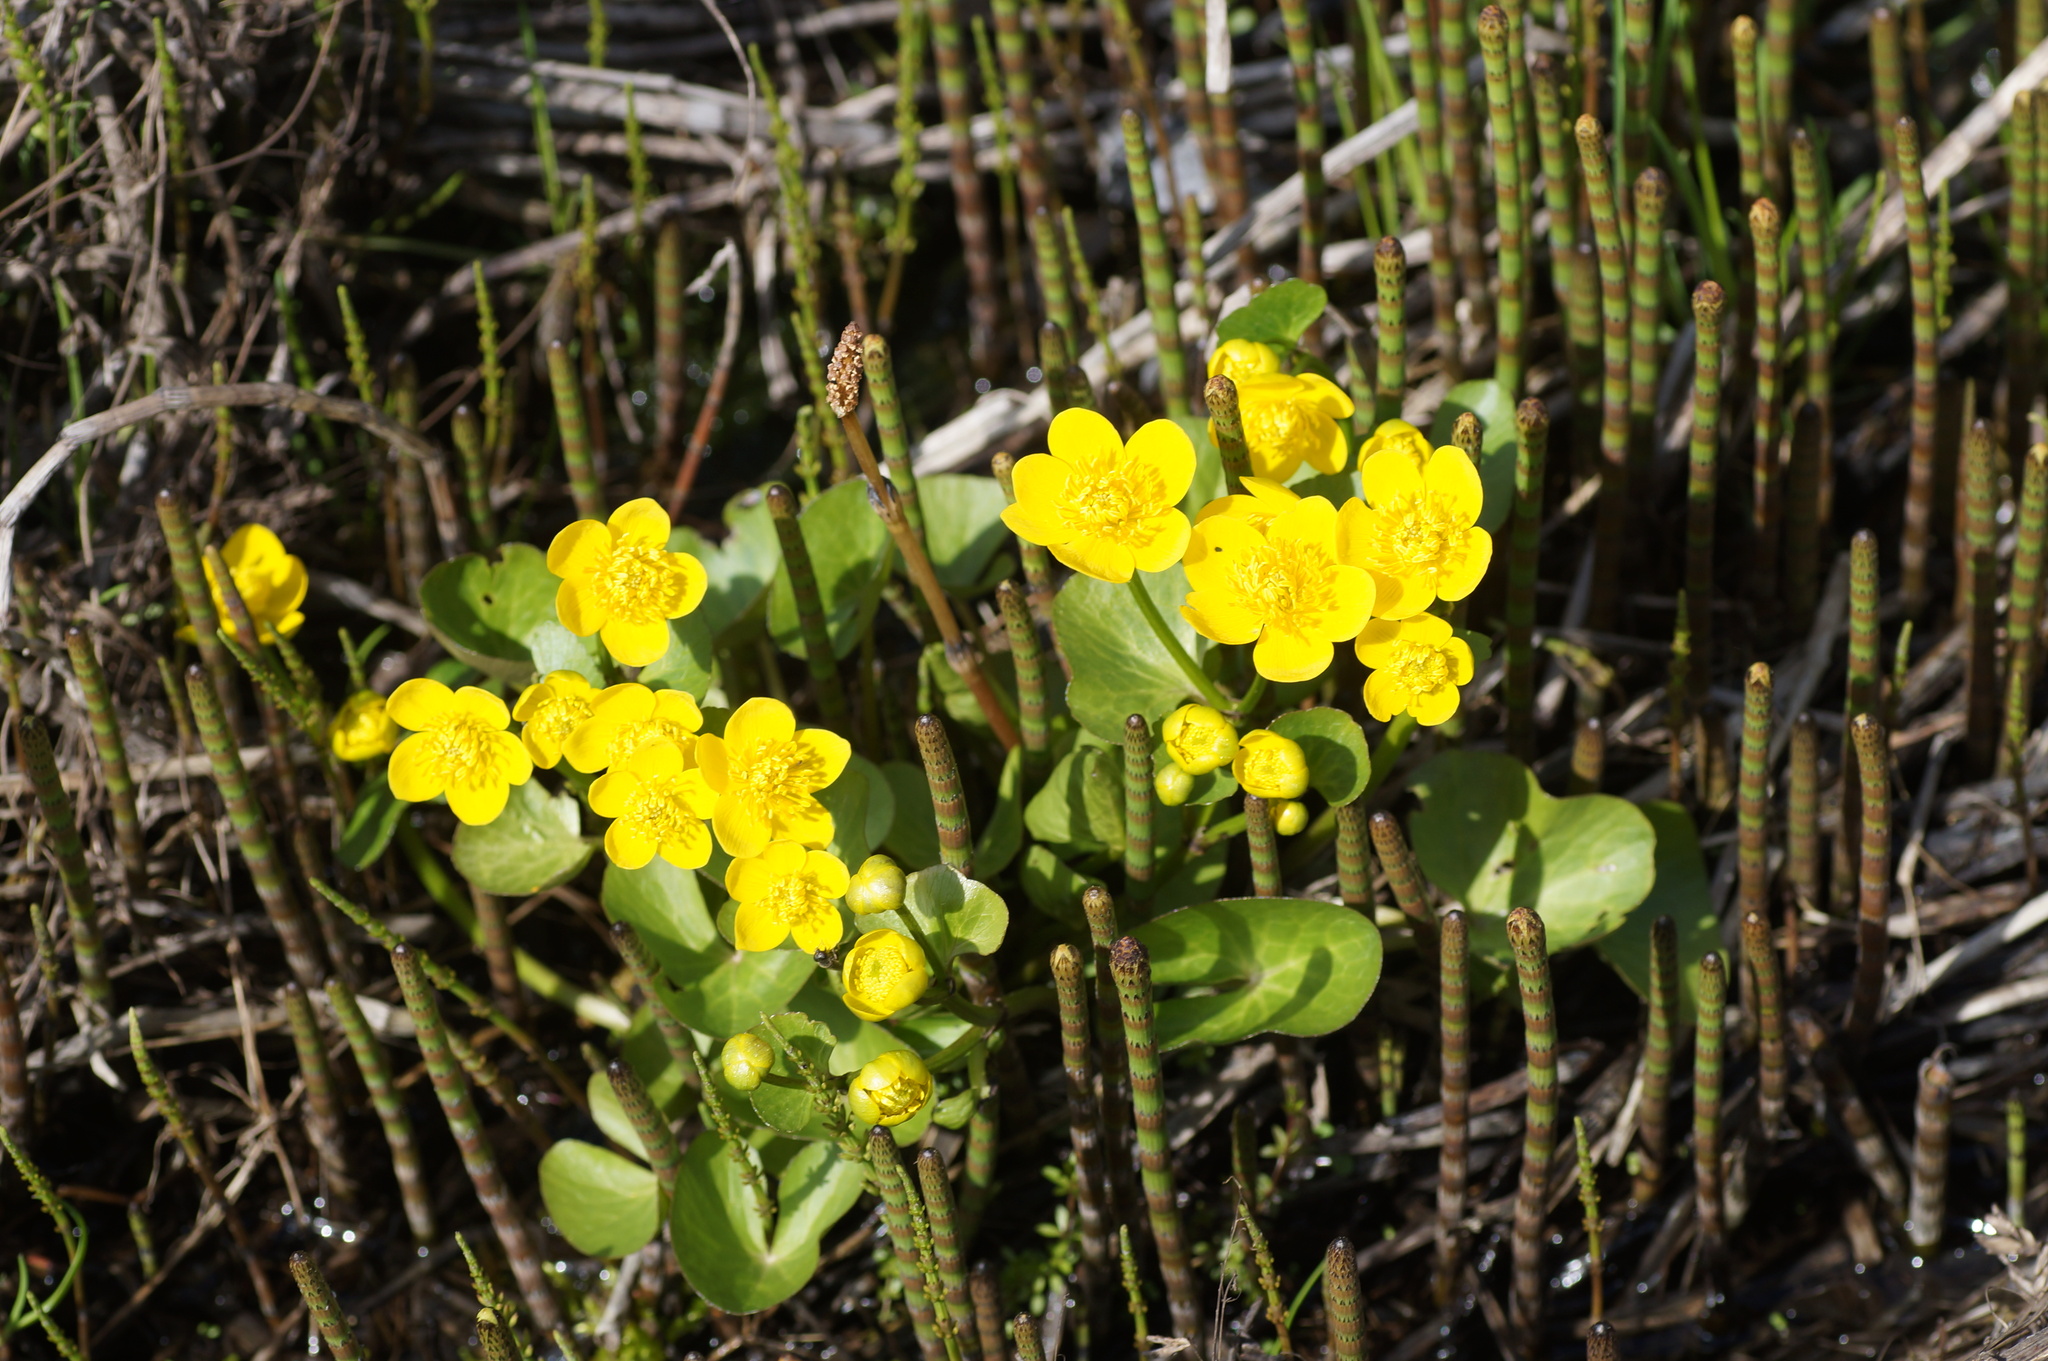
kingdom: Plantae
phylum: Tracheophyta
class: Magnoliopsida
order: Ranunculales
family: Ranunculaceae
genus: Caltha
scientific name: Caltha palustris
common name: Marsh marigold
